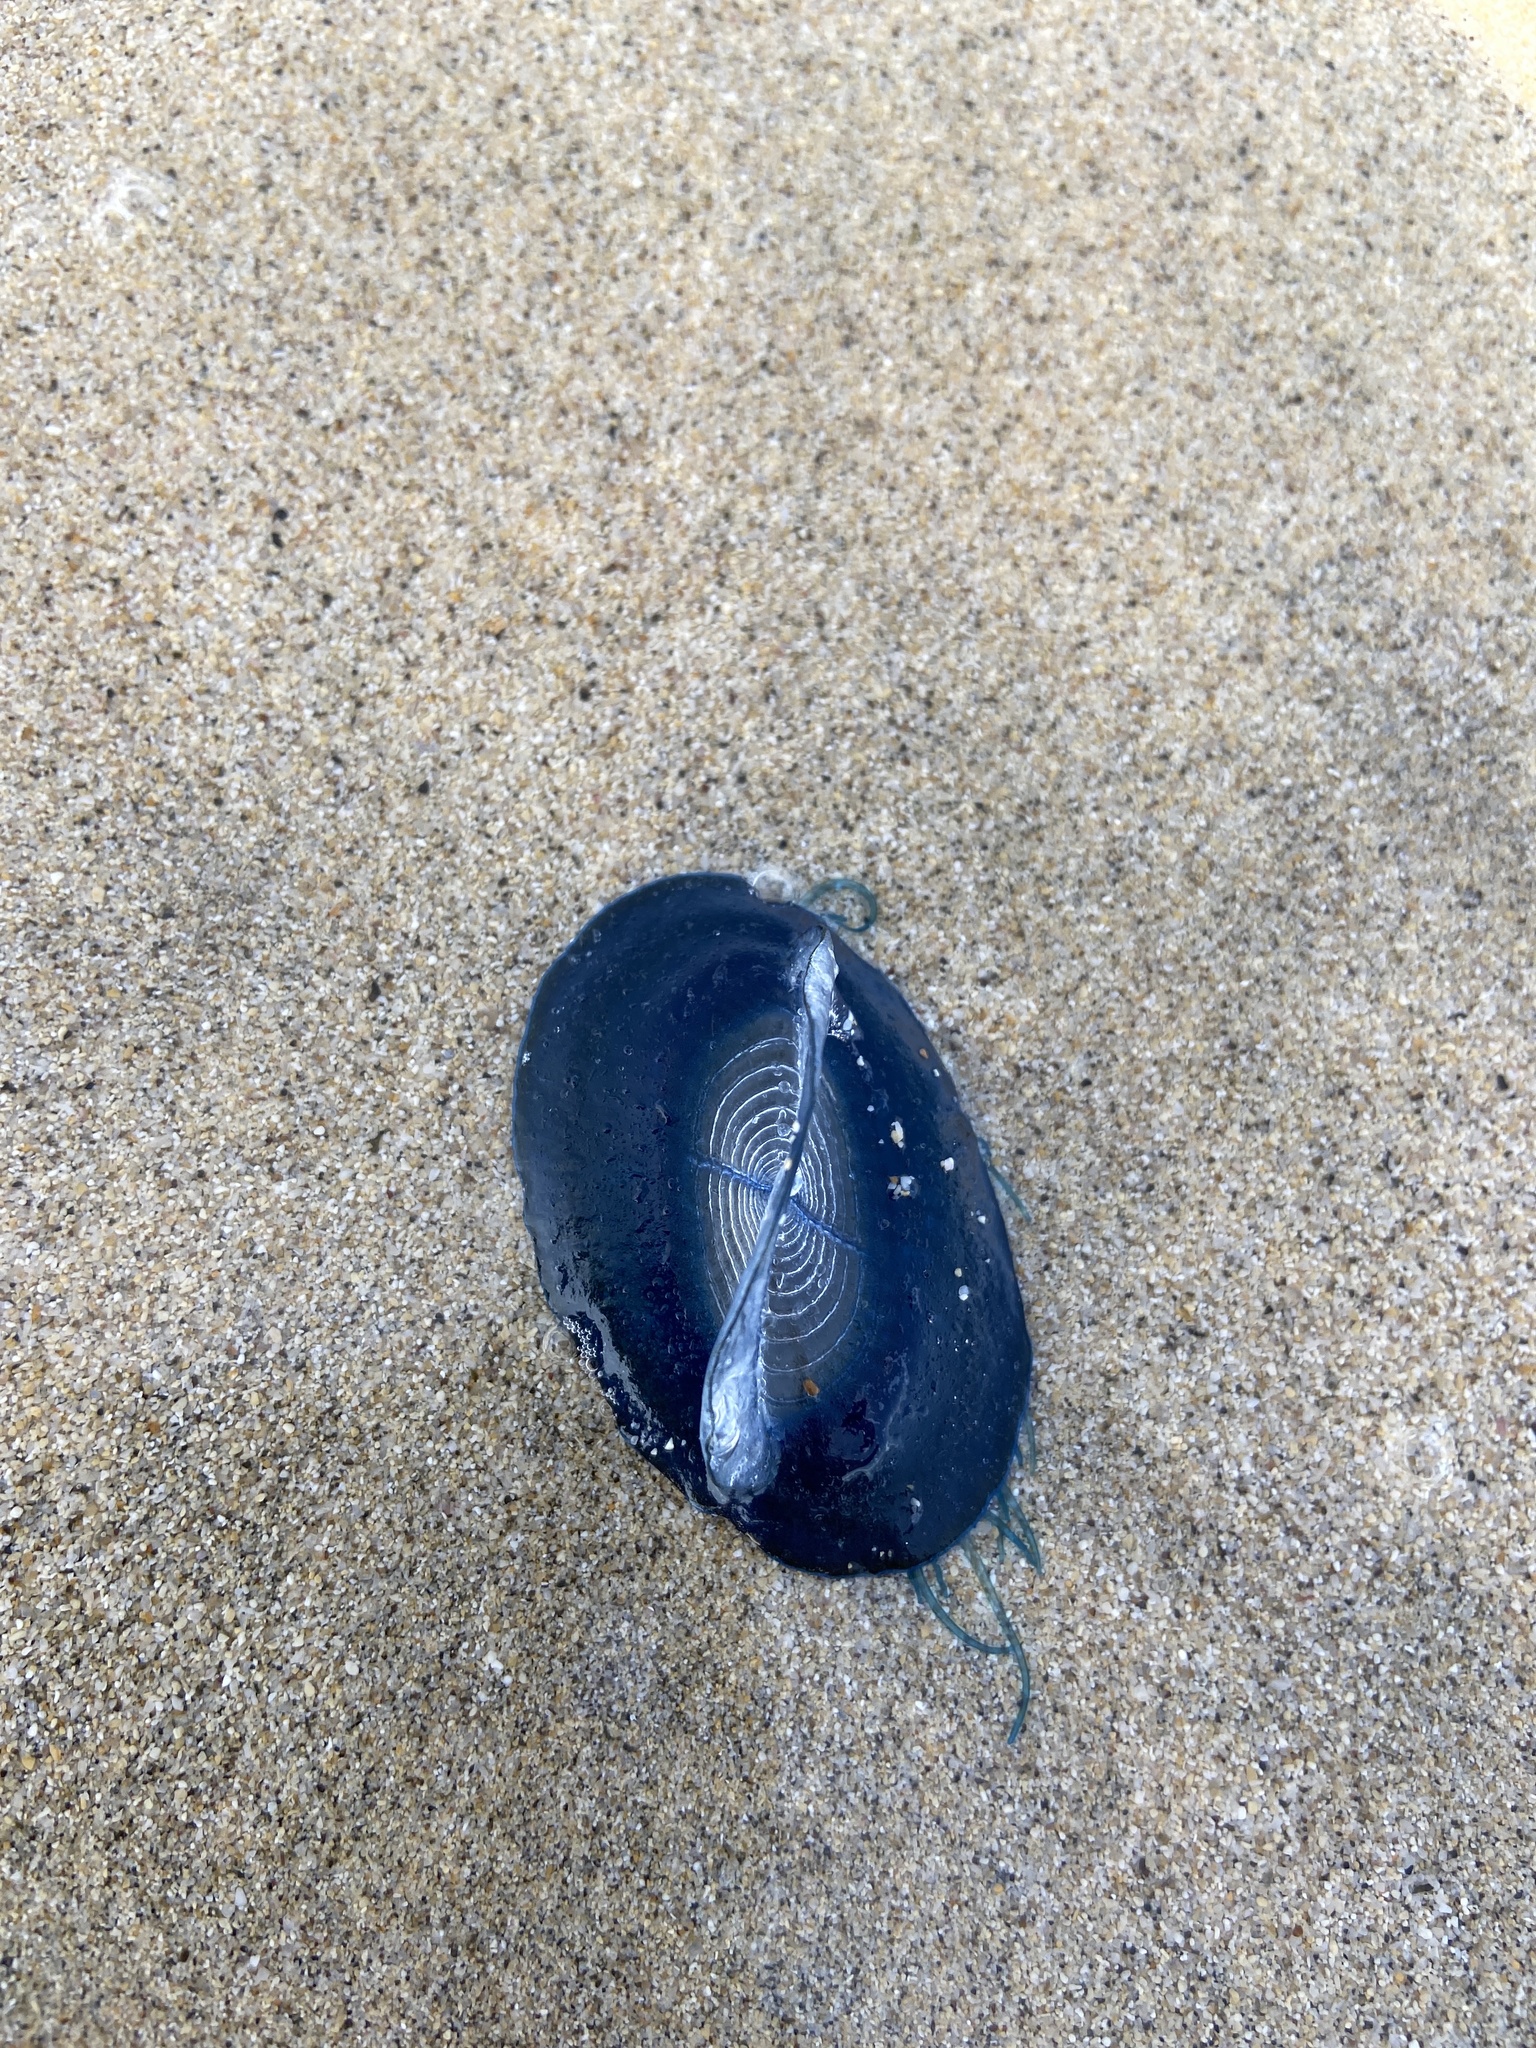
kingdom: Animalia
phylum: Cnidaria
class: Hydrozoa
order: Anthoathecata
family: Porpitidae
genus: Velella
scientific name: Velella velella
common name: By-the-wind-sailor
